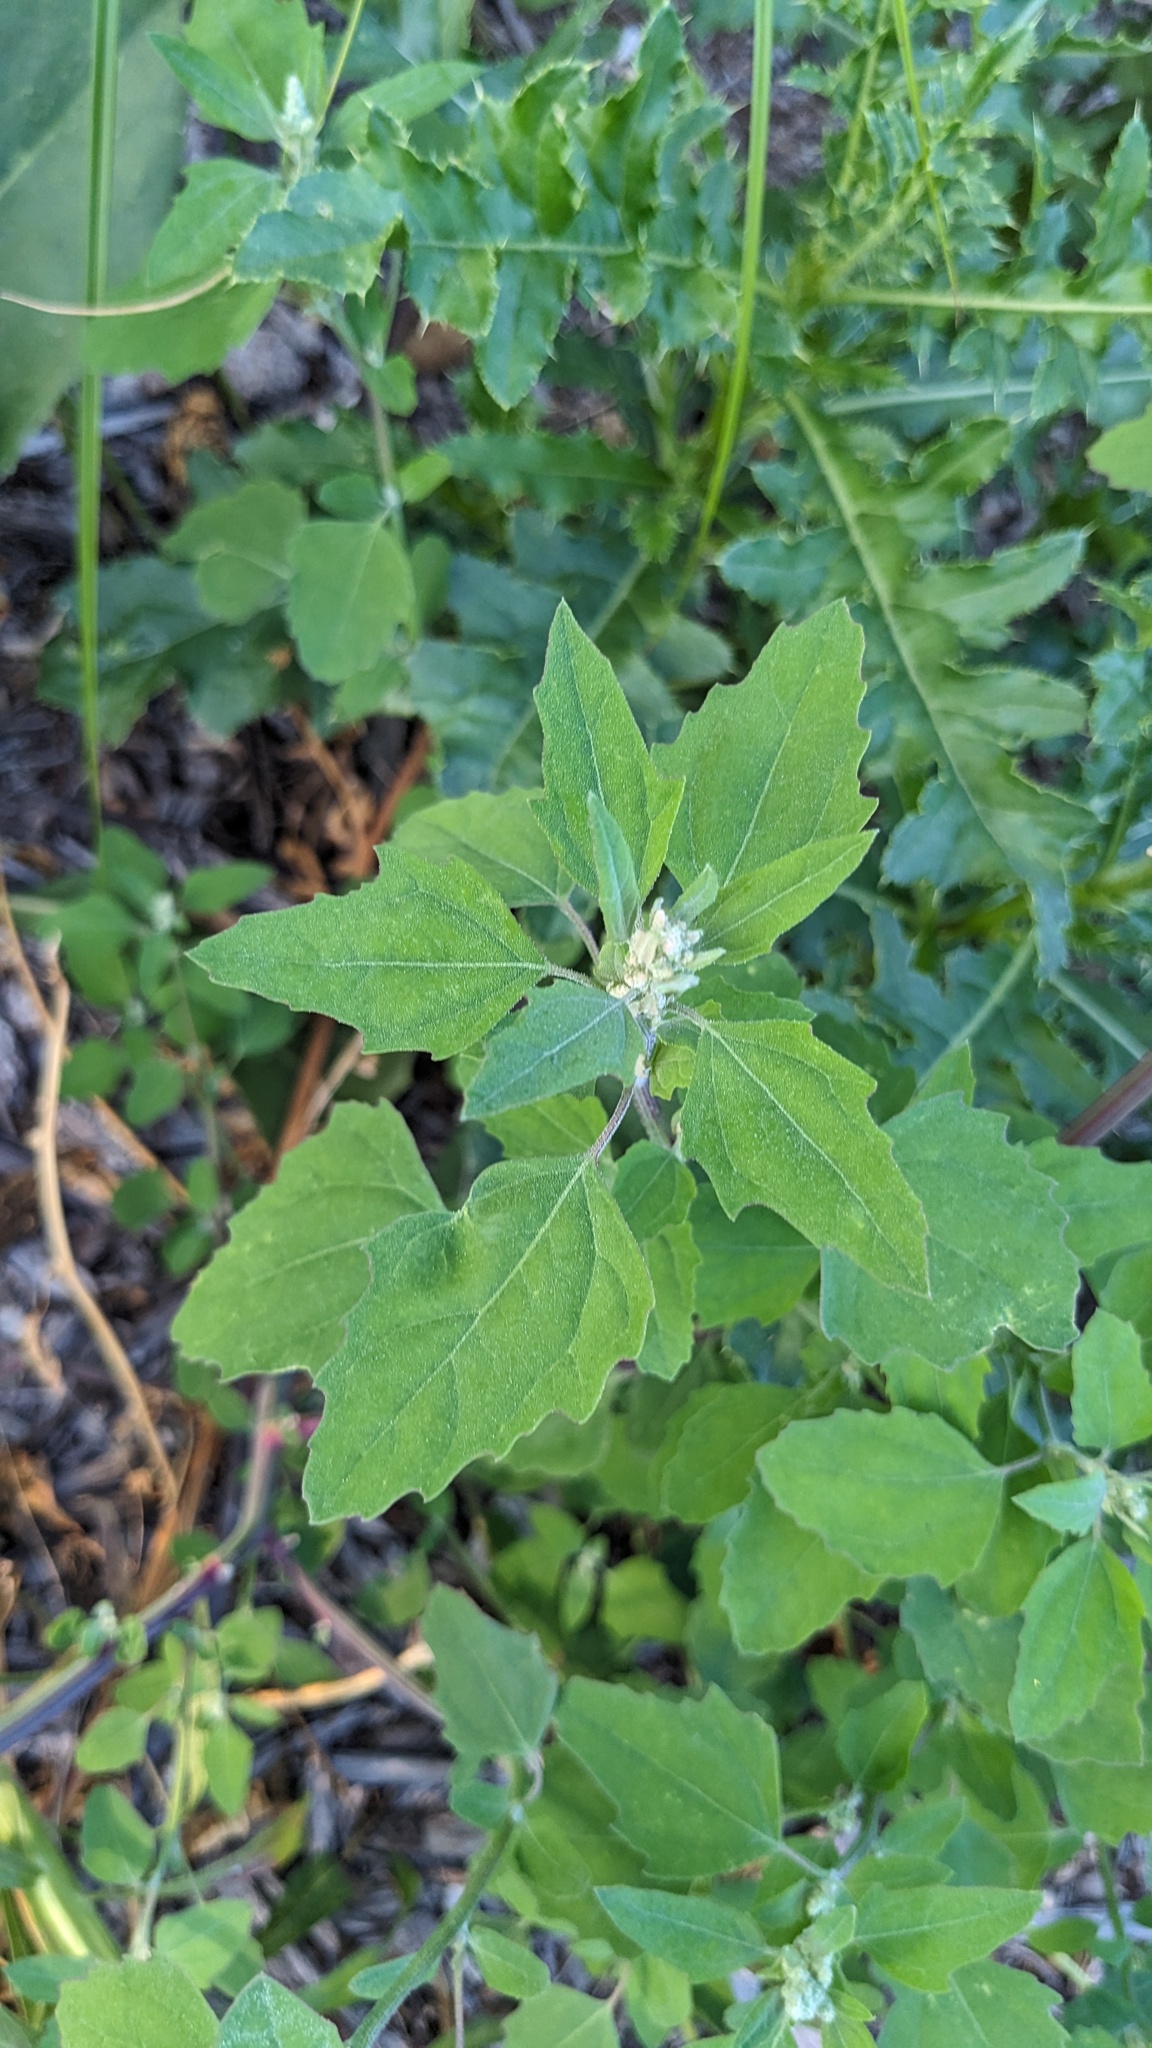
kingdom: Plantae
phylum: Tracheophyta
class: Magnoliopsida
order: Caryophyllales
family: Amaranthaceae
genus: Chenopodium
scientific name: Chenopodium album
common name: Fat-hen
